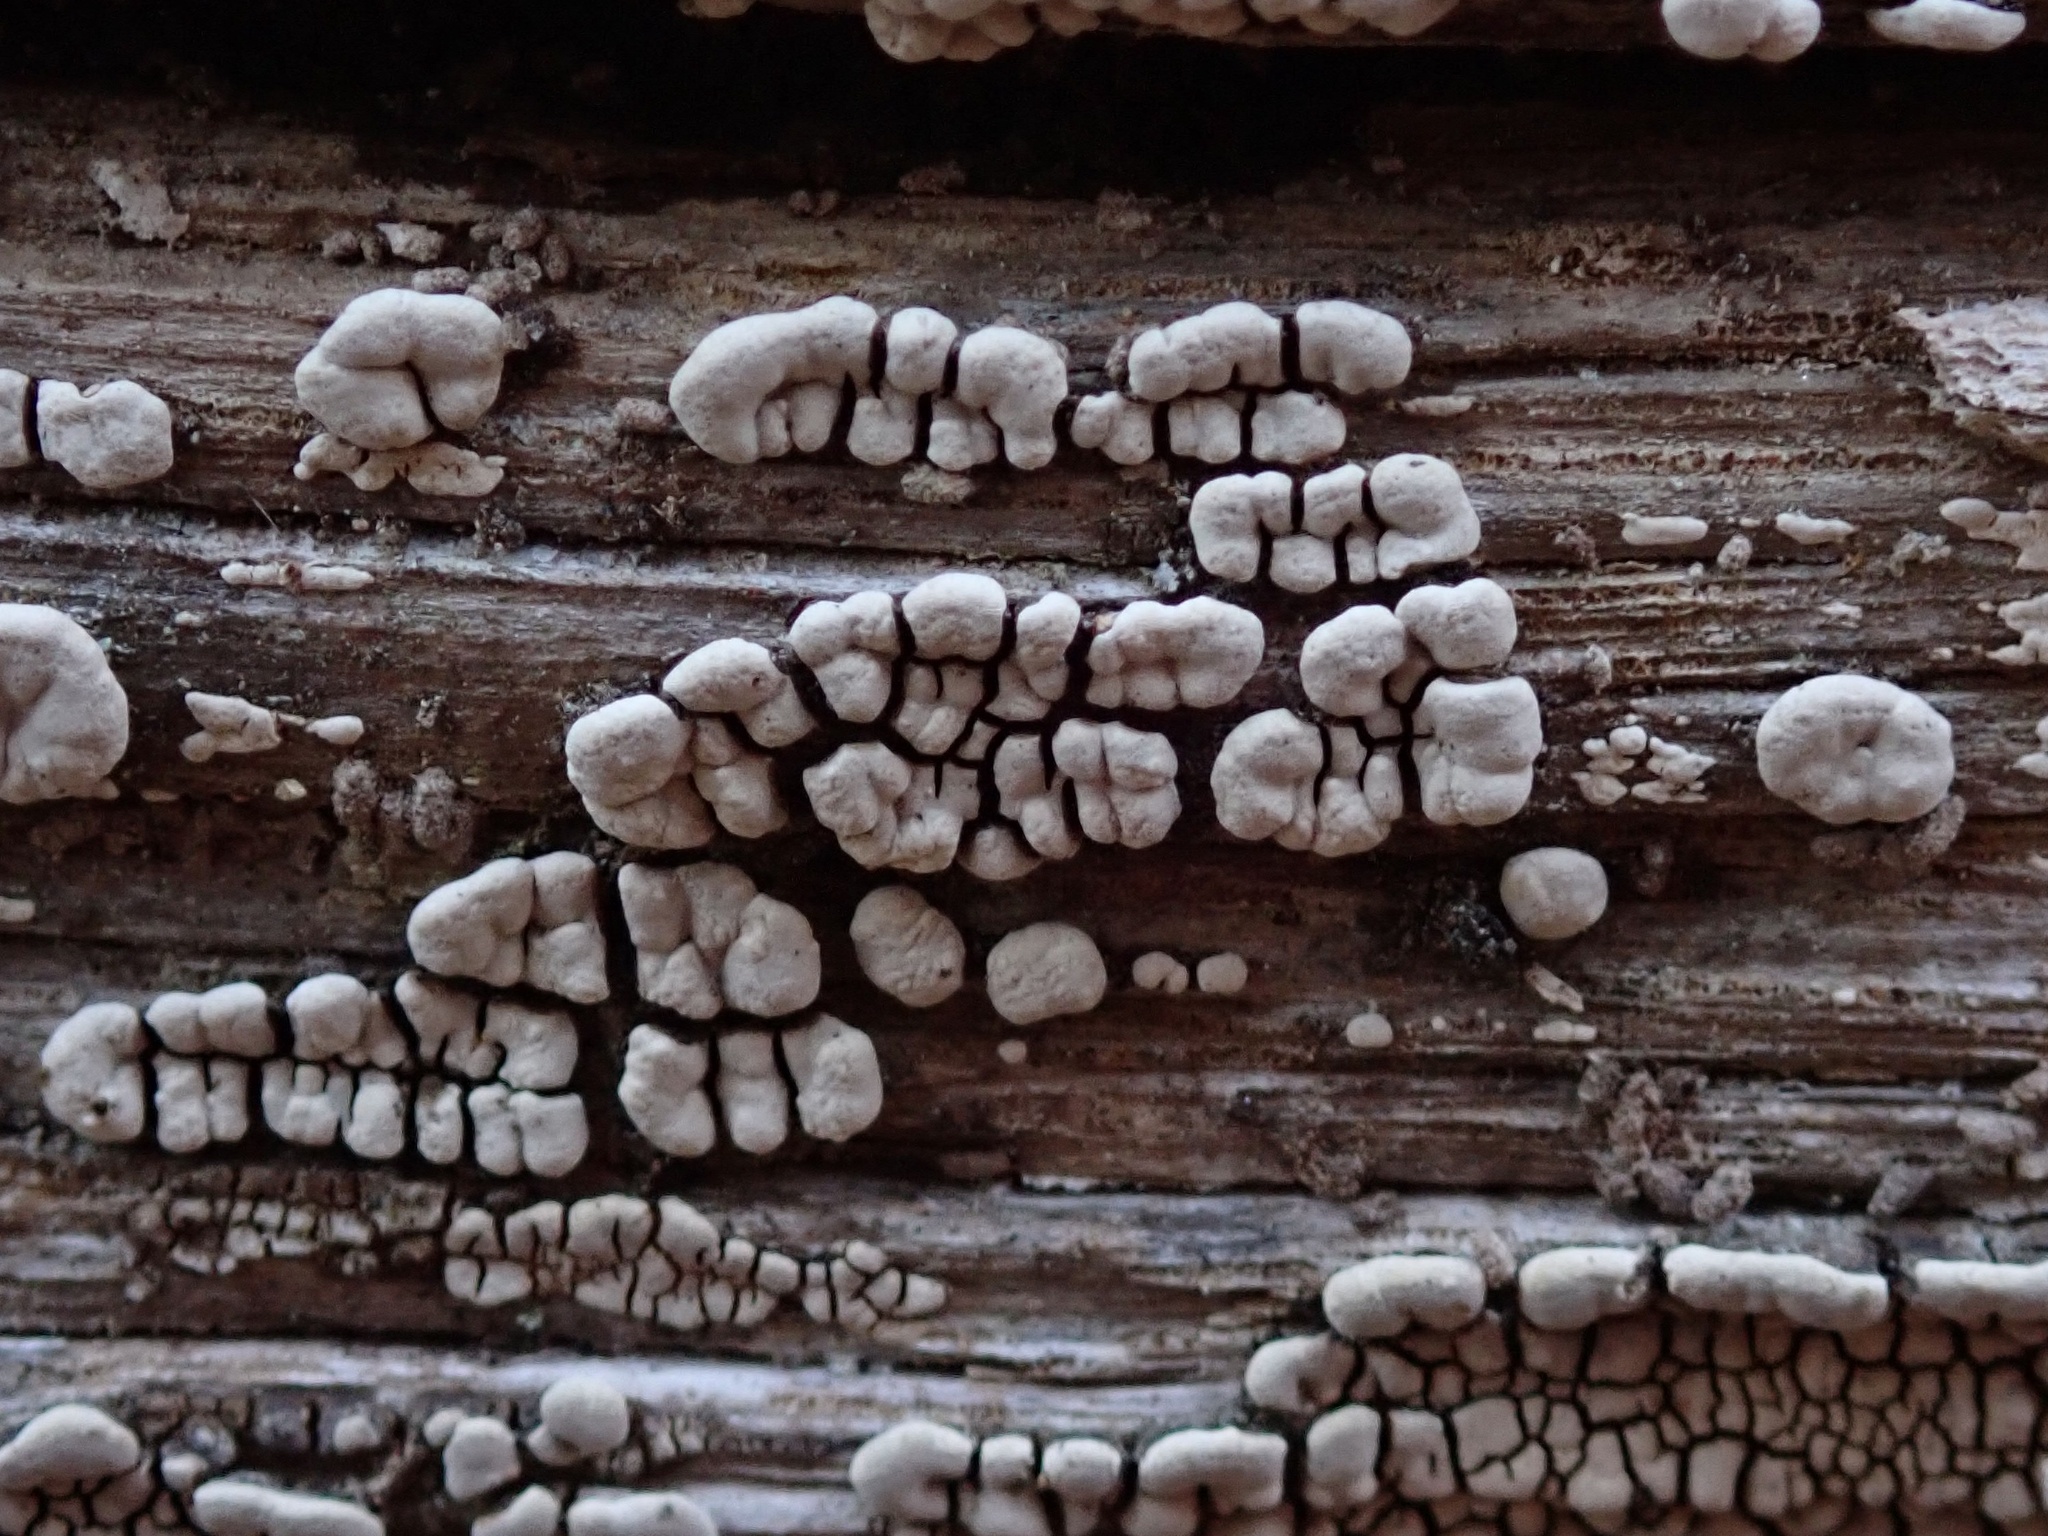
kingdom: Fungi
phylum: Basidiomycota
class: Agaricomycetes
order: Russulales
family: Stereaceae
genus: Xylobolus
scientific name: Xylobolus frustulatus
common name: Ceramic parchment
